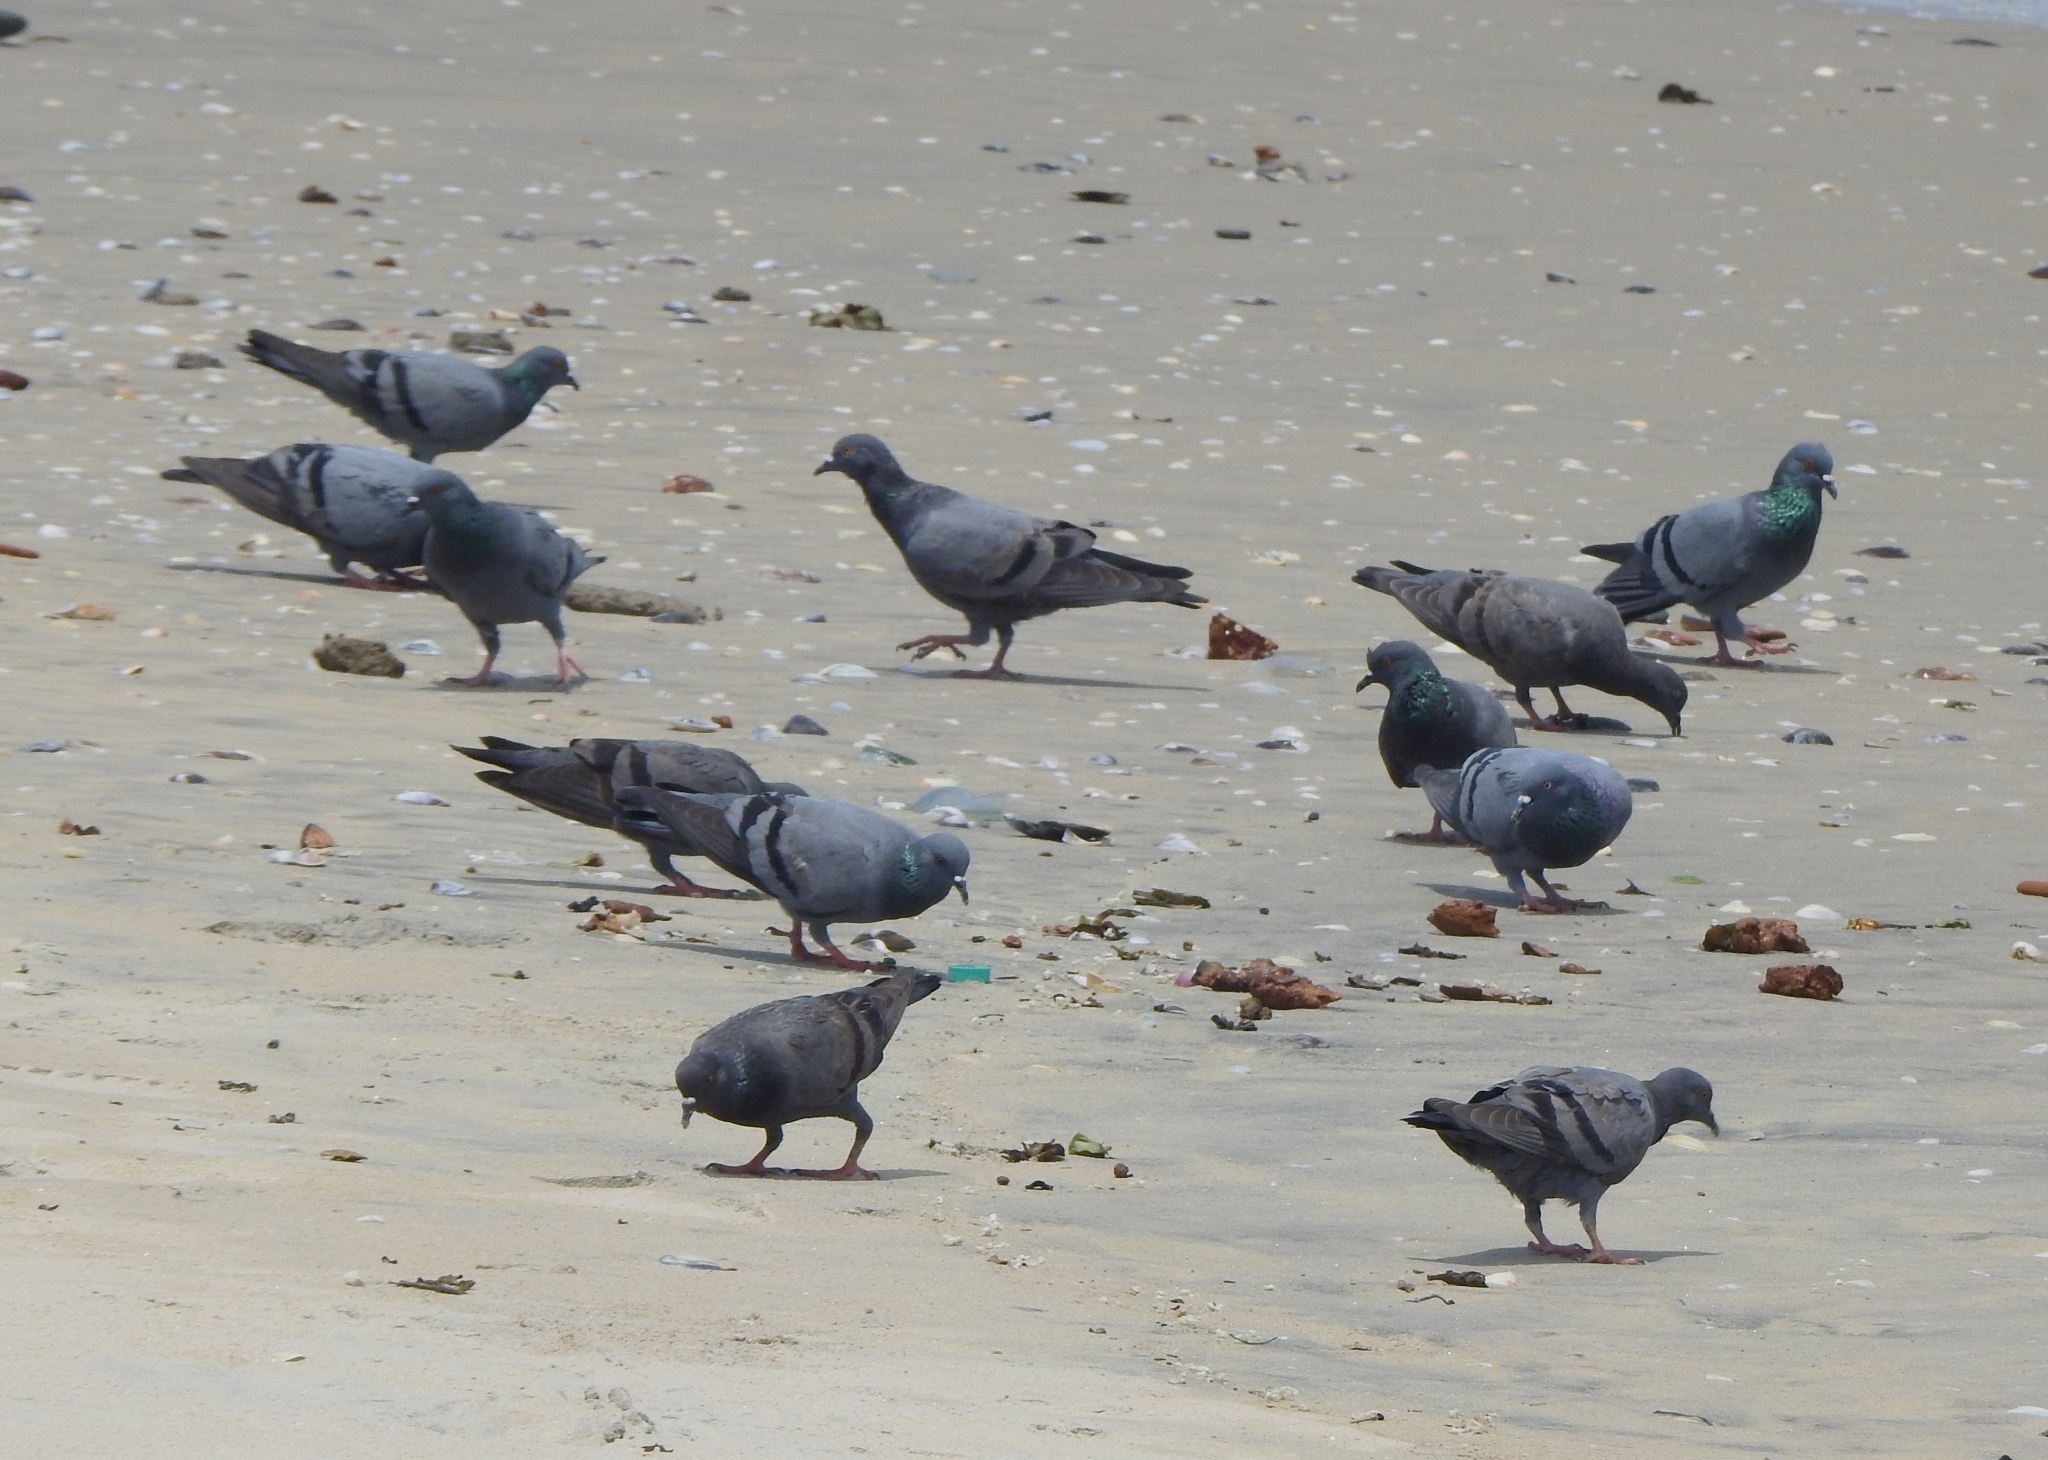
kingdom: Animalia
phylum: Chordata
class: Aves
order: Columbiformes
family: Columbidae
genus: Columba
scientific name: Columba livia
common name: Rock pigeon
